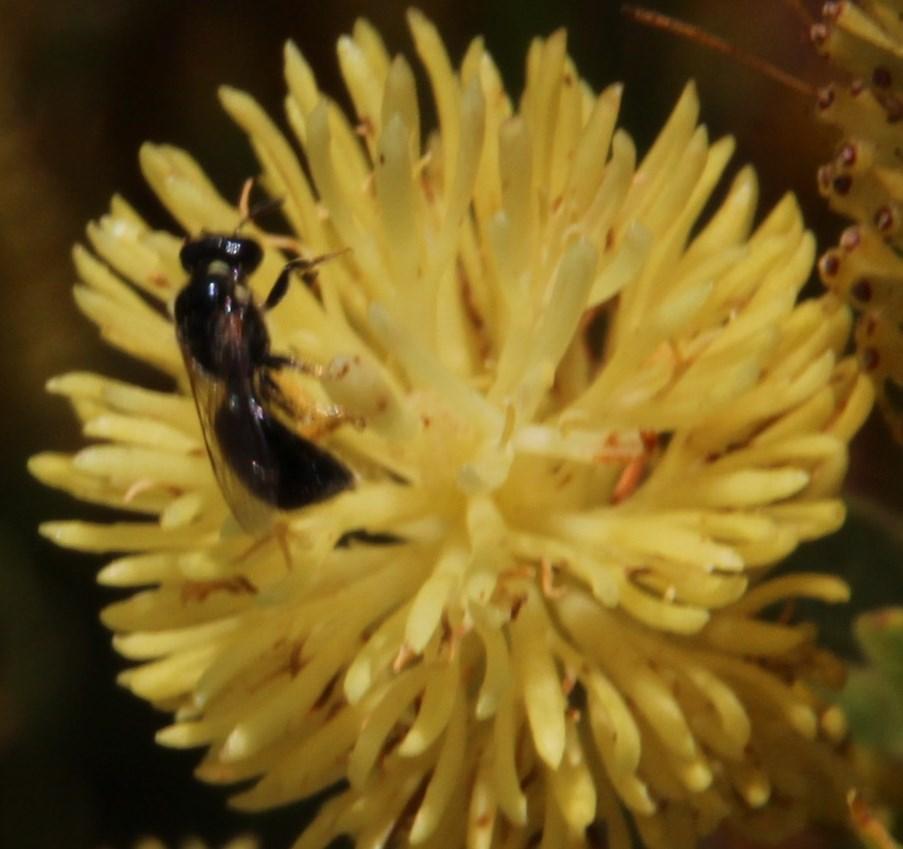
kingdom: Plantae
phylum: Tracheophyta
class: Magnoliopsida
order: Proteales
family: Proteaceae
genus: Aulax
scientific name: Aulax umbellata
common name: Broad-leaf featherbush
